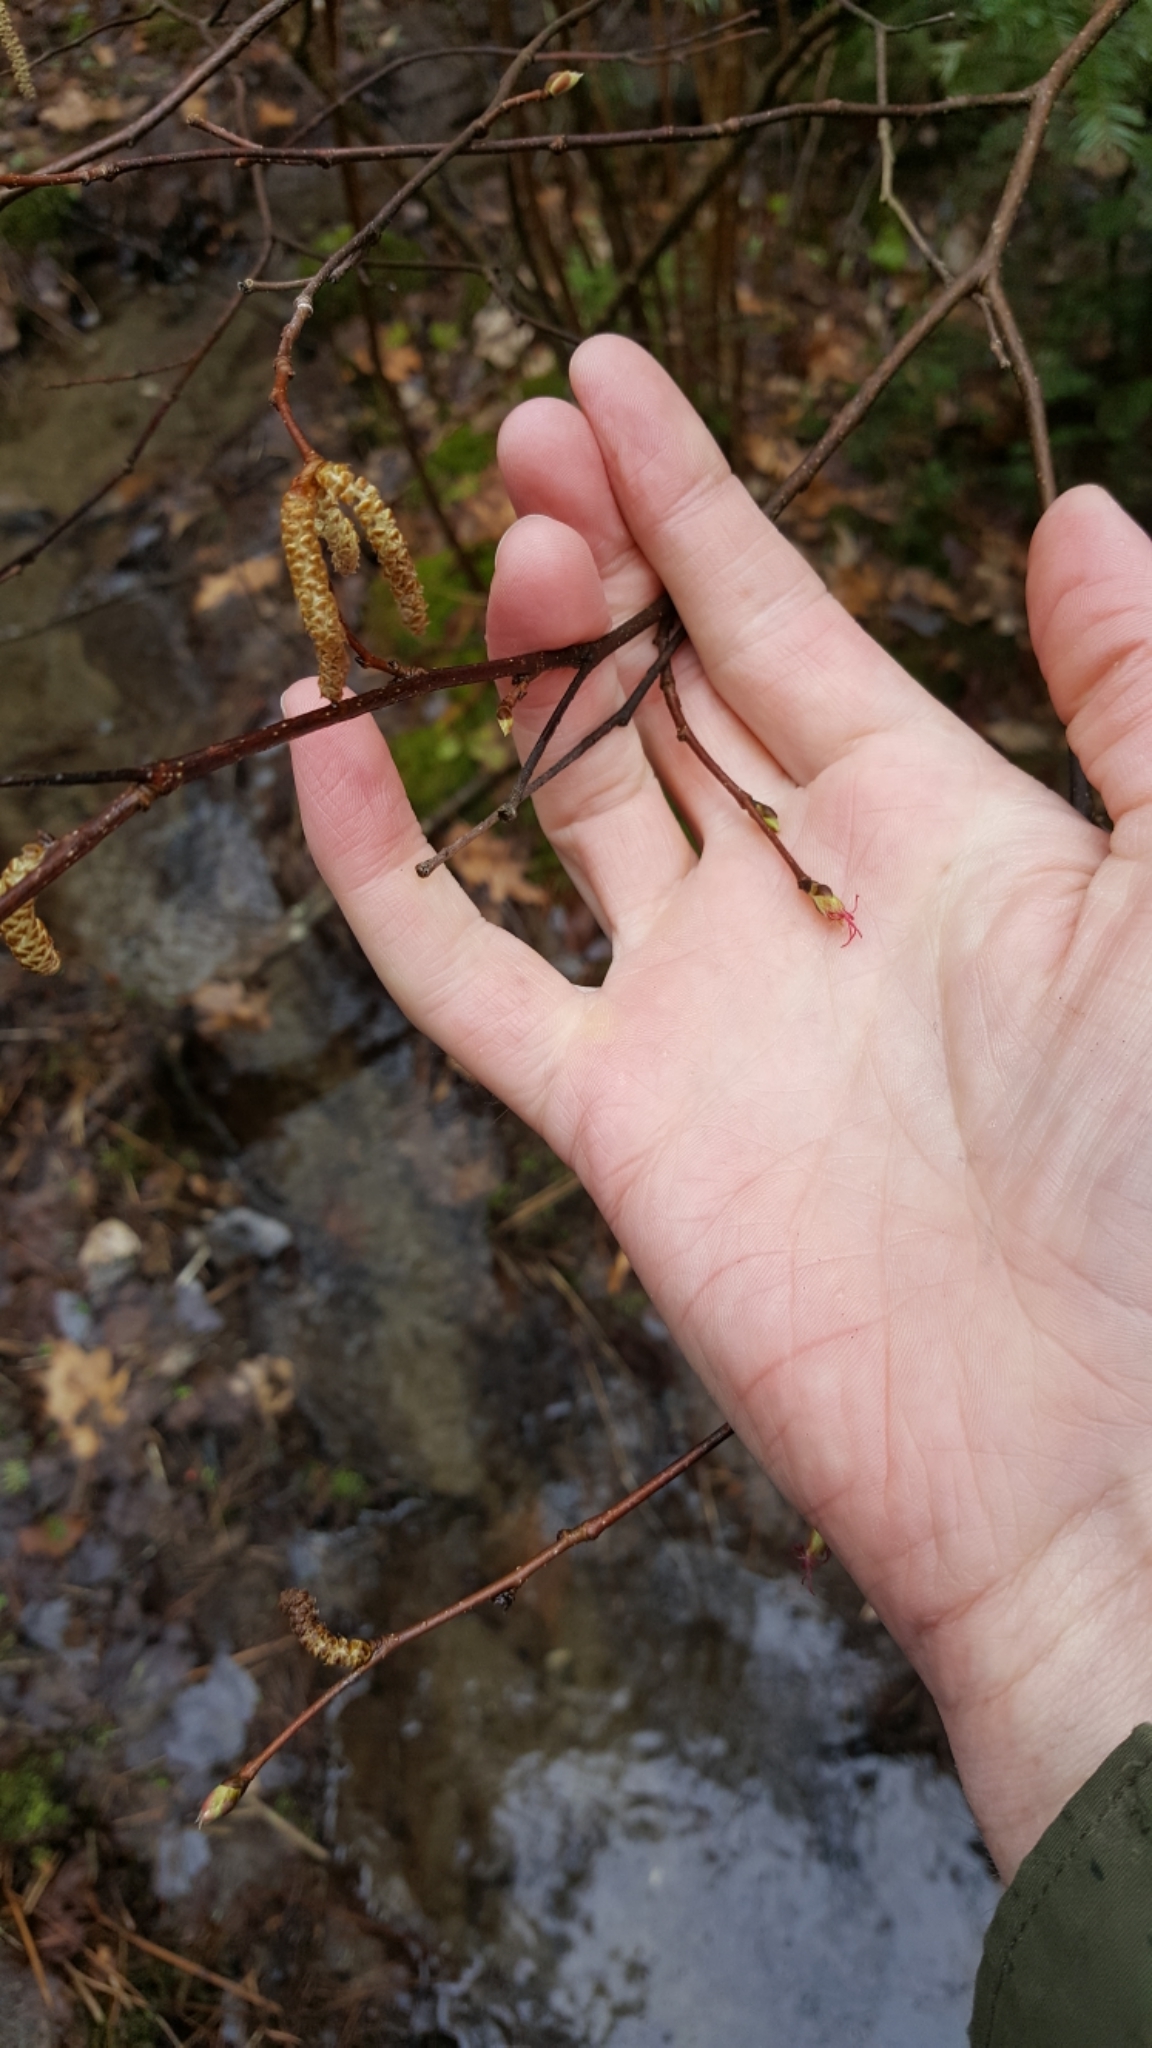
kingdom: Plantae
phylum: Tracheophyta
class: Magnoliopsida
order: Fagales
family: Betulaceae
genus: Corylus
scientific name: Corylus cornuta
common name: Beaked hazel
